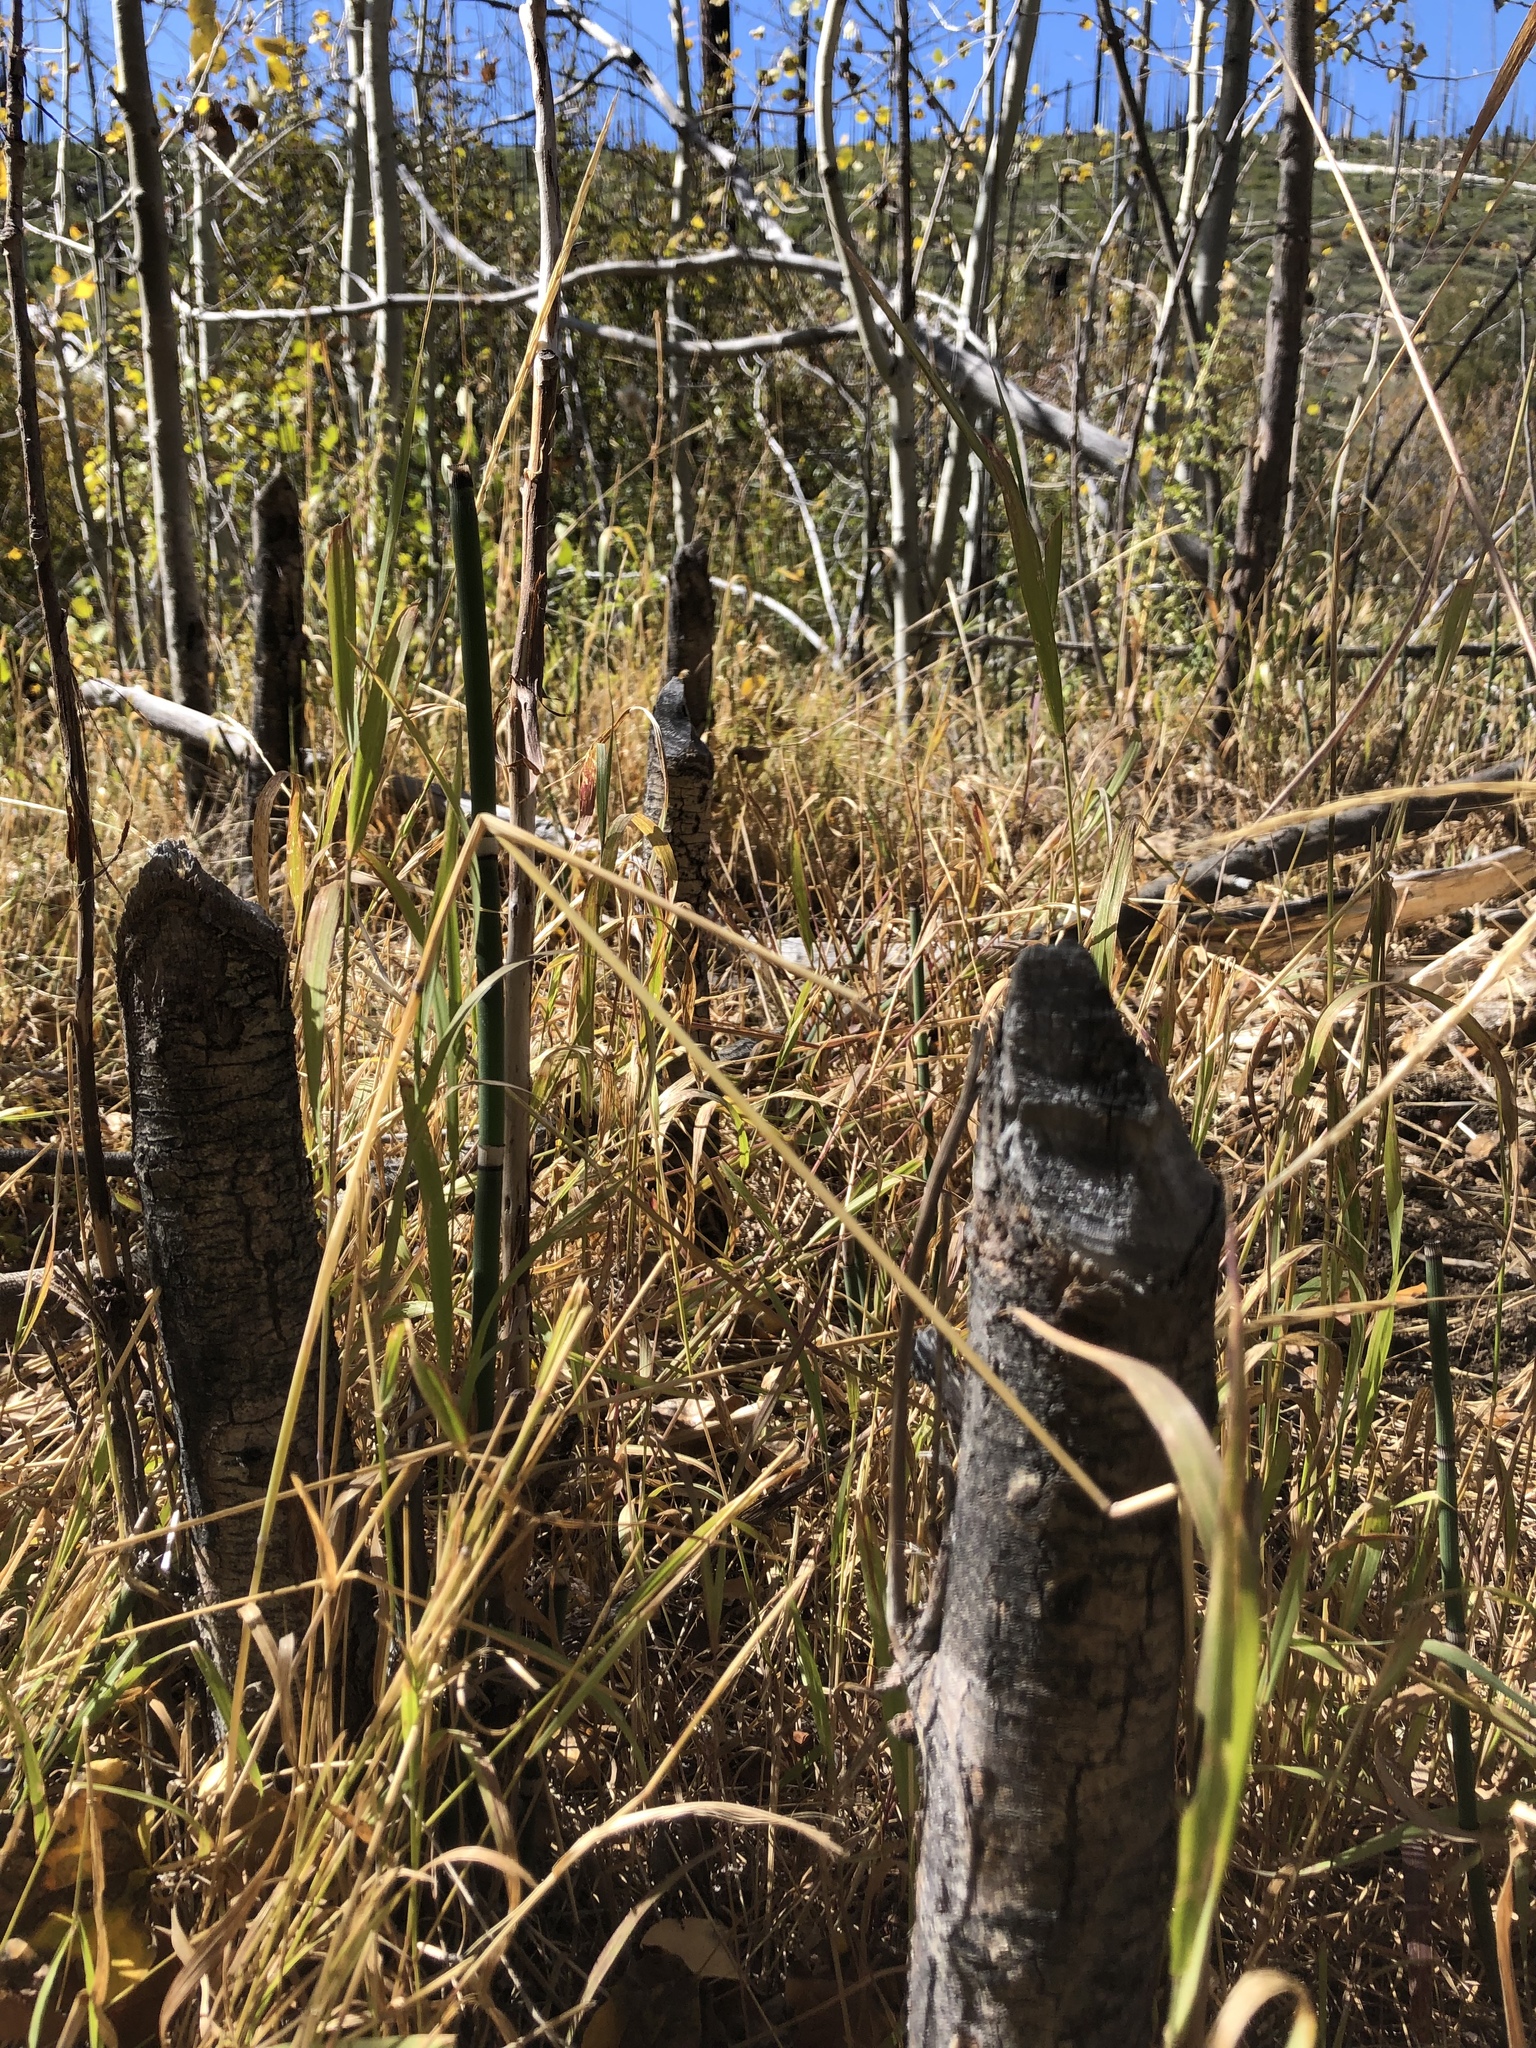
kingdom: Animalia
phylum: Chordata
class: Mammalia
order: Rodentia
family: Castoridae
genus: Castor
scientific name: Castor canadensis
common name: American beaver
